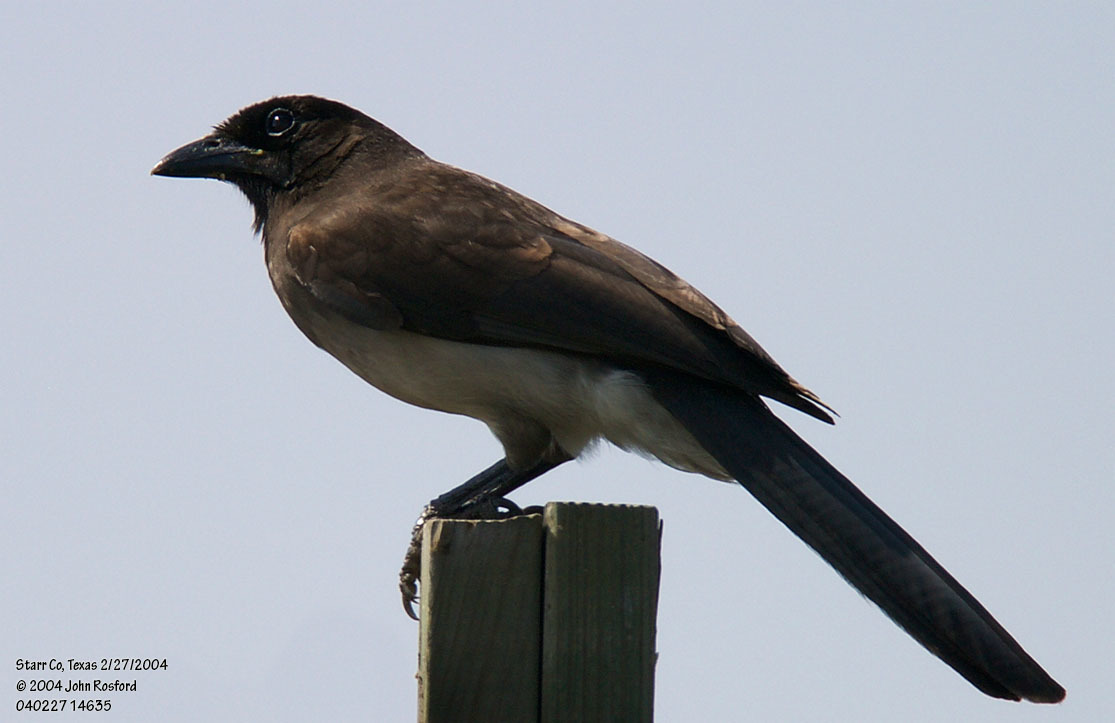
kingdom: Animalia
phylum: Chordata
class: Aves
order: Passeriformes
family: Corvidae
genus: Psilorhinus
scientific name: Psilorhinus morio
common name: Brown jay
